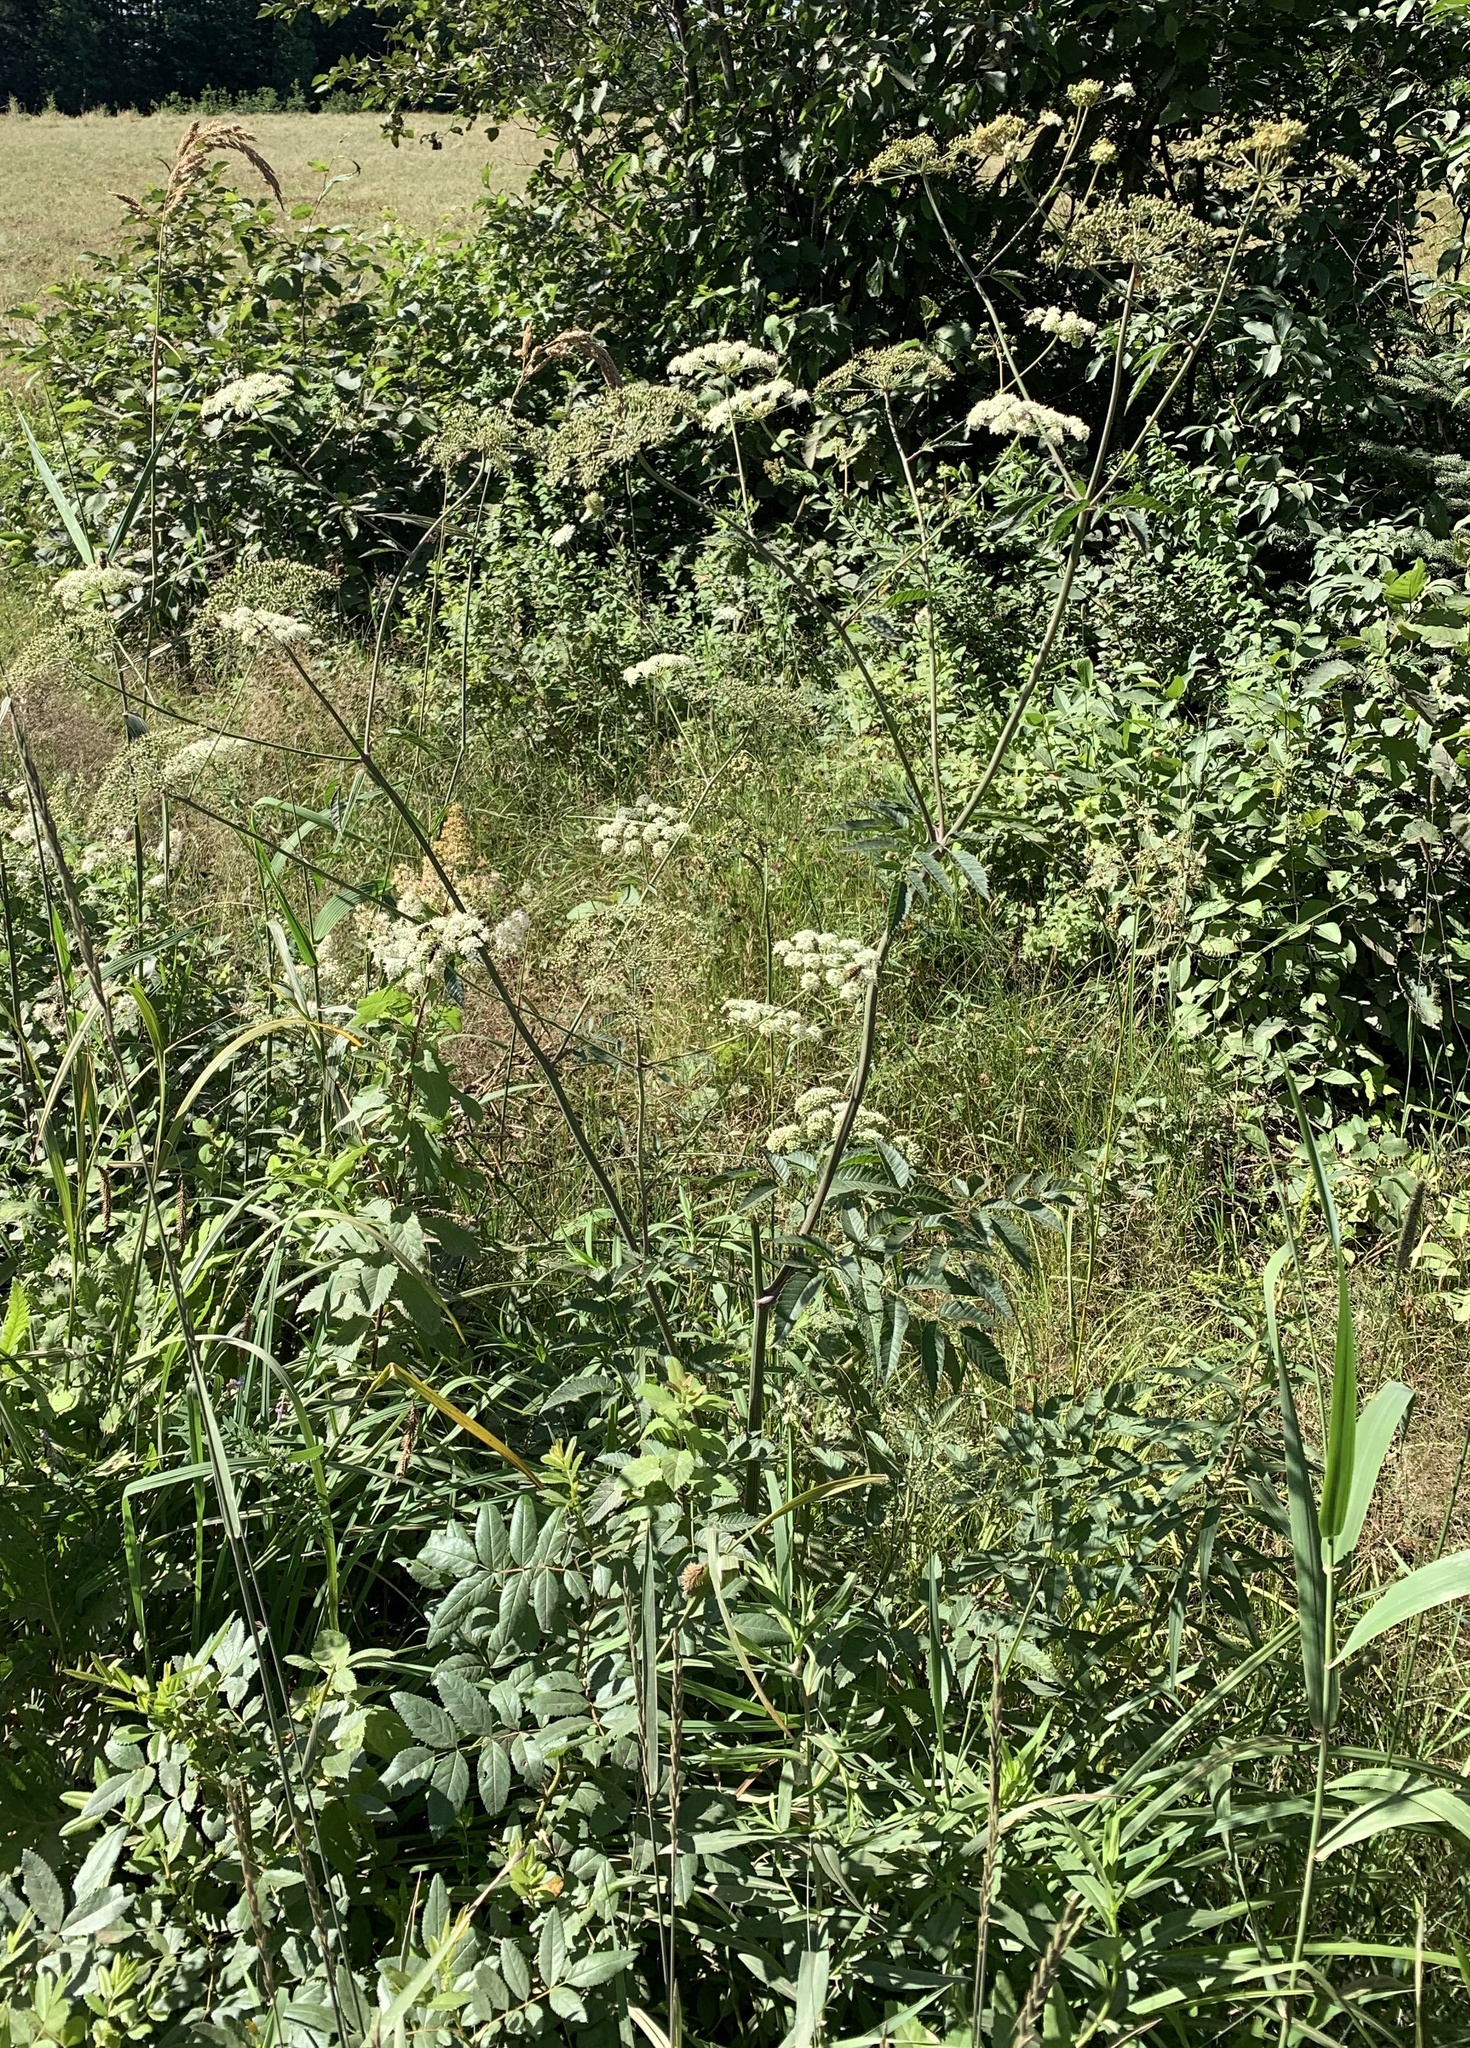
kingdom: Plantae
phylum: Tracheophyta
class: Magnoliopsida
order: Apiales
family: Apiaceae
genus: Cicuta
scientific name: Cicuta maculata
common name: Spotted cowbane
